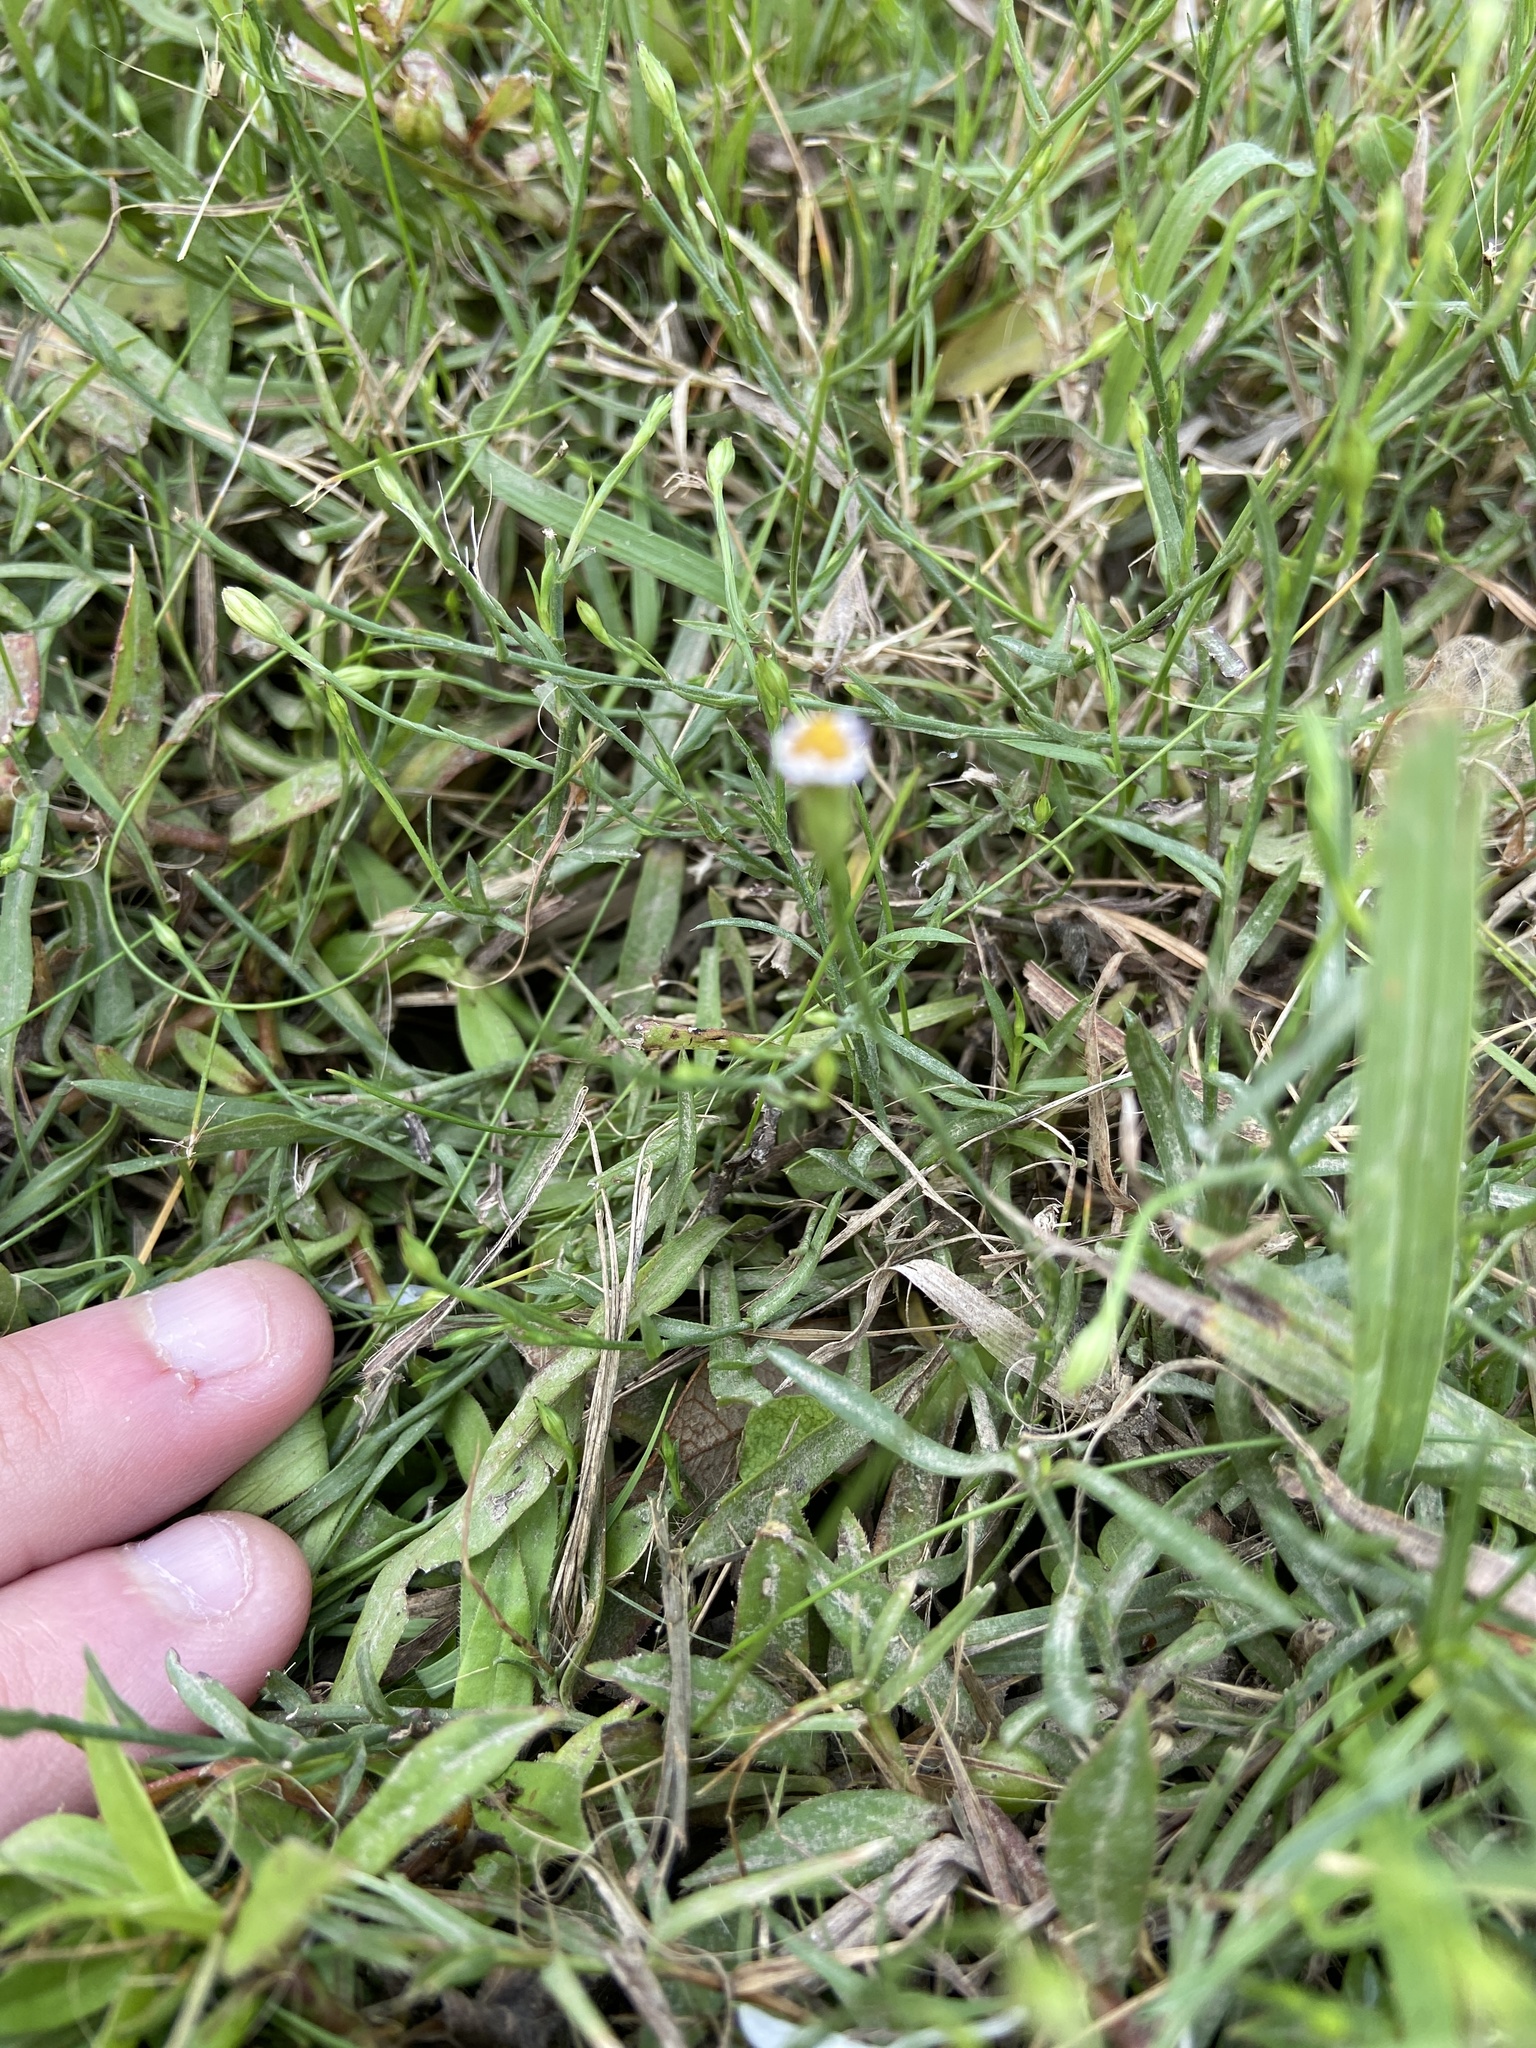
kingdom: Plantae
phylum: Tracheophyta
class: Magnoliopsida
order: Asterales
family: Asteraceae
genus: Symphyotrichum
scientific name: Symphyotrichum divaricatum
